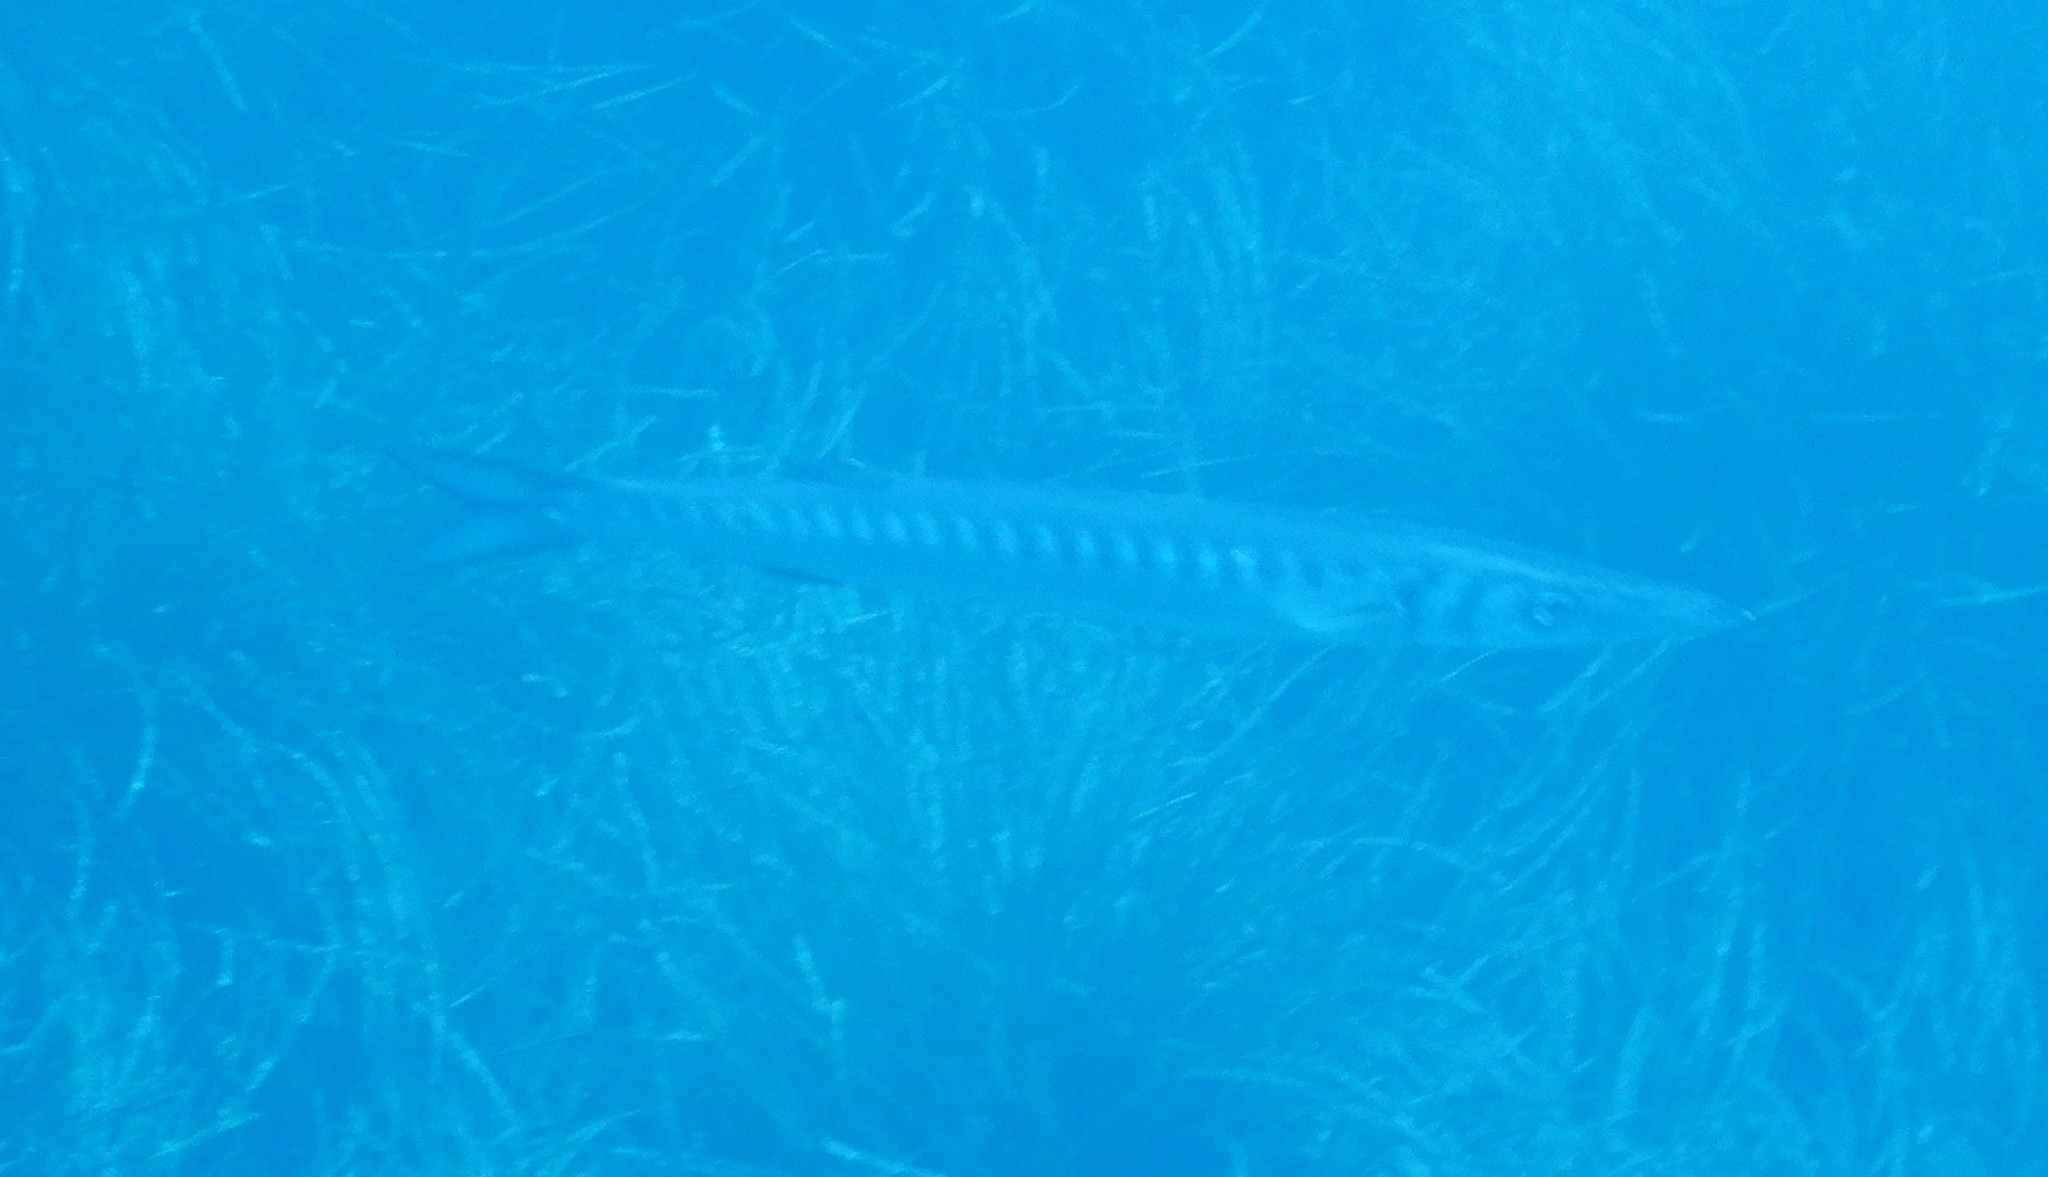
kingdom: Animalia
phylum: Chordata
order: Perciformes
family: Sphyraenidae
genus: Sphyraena
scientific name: Sphyraena viridensis
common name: Yellowmouth barracuda
